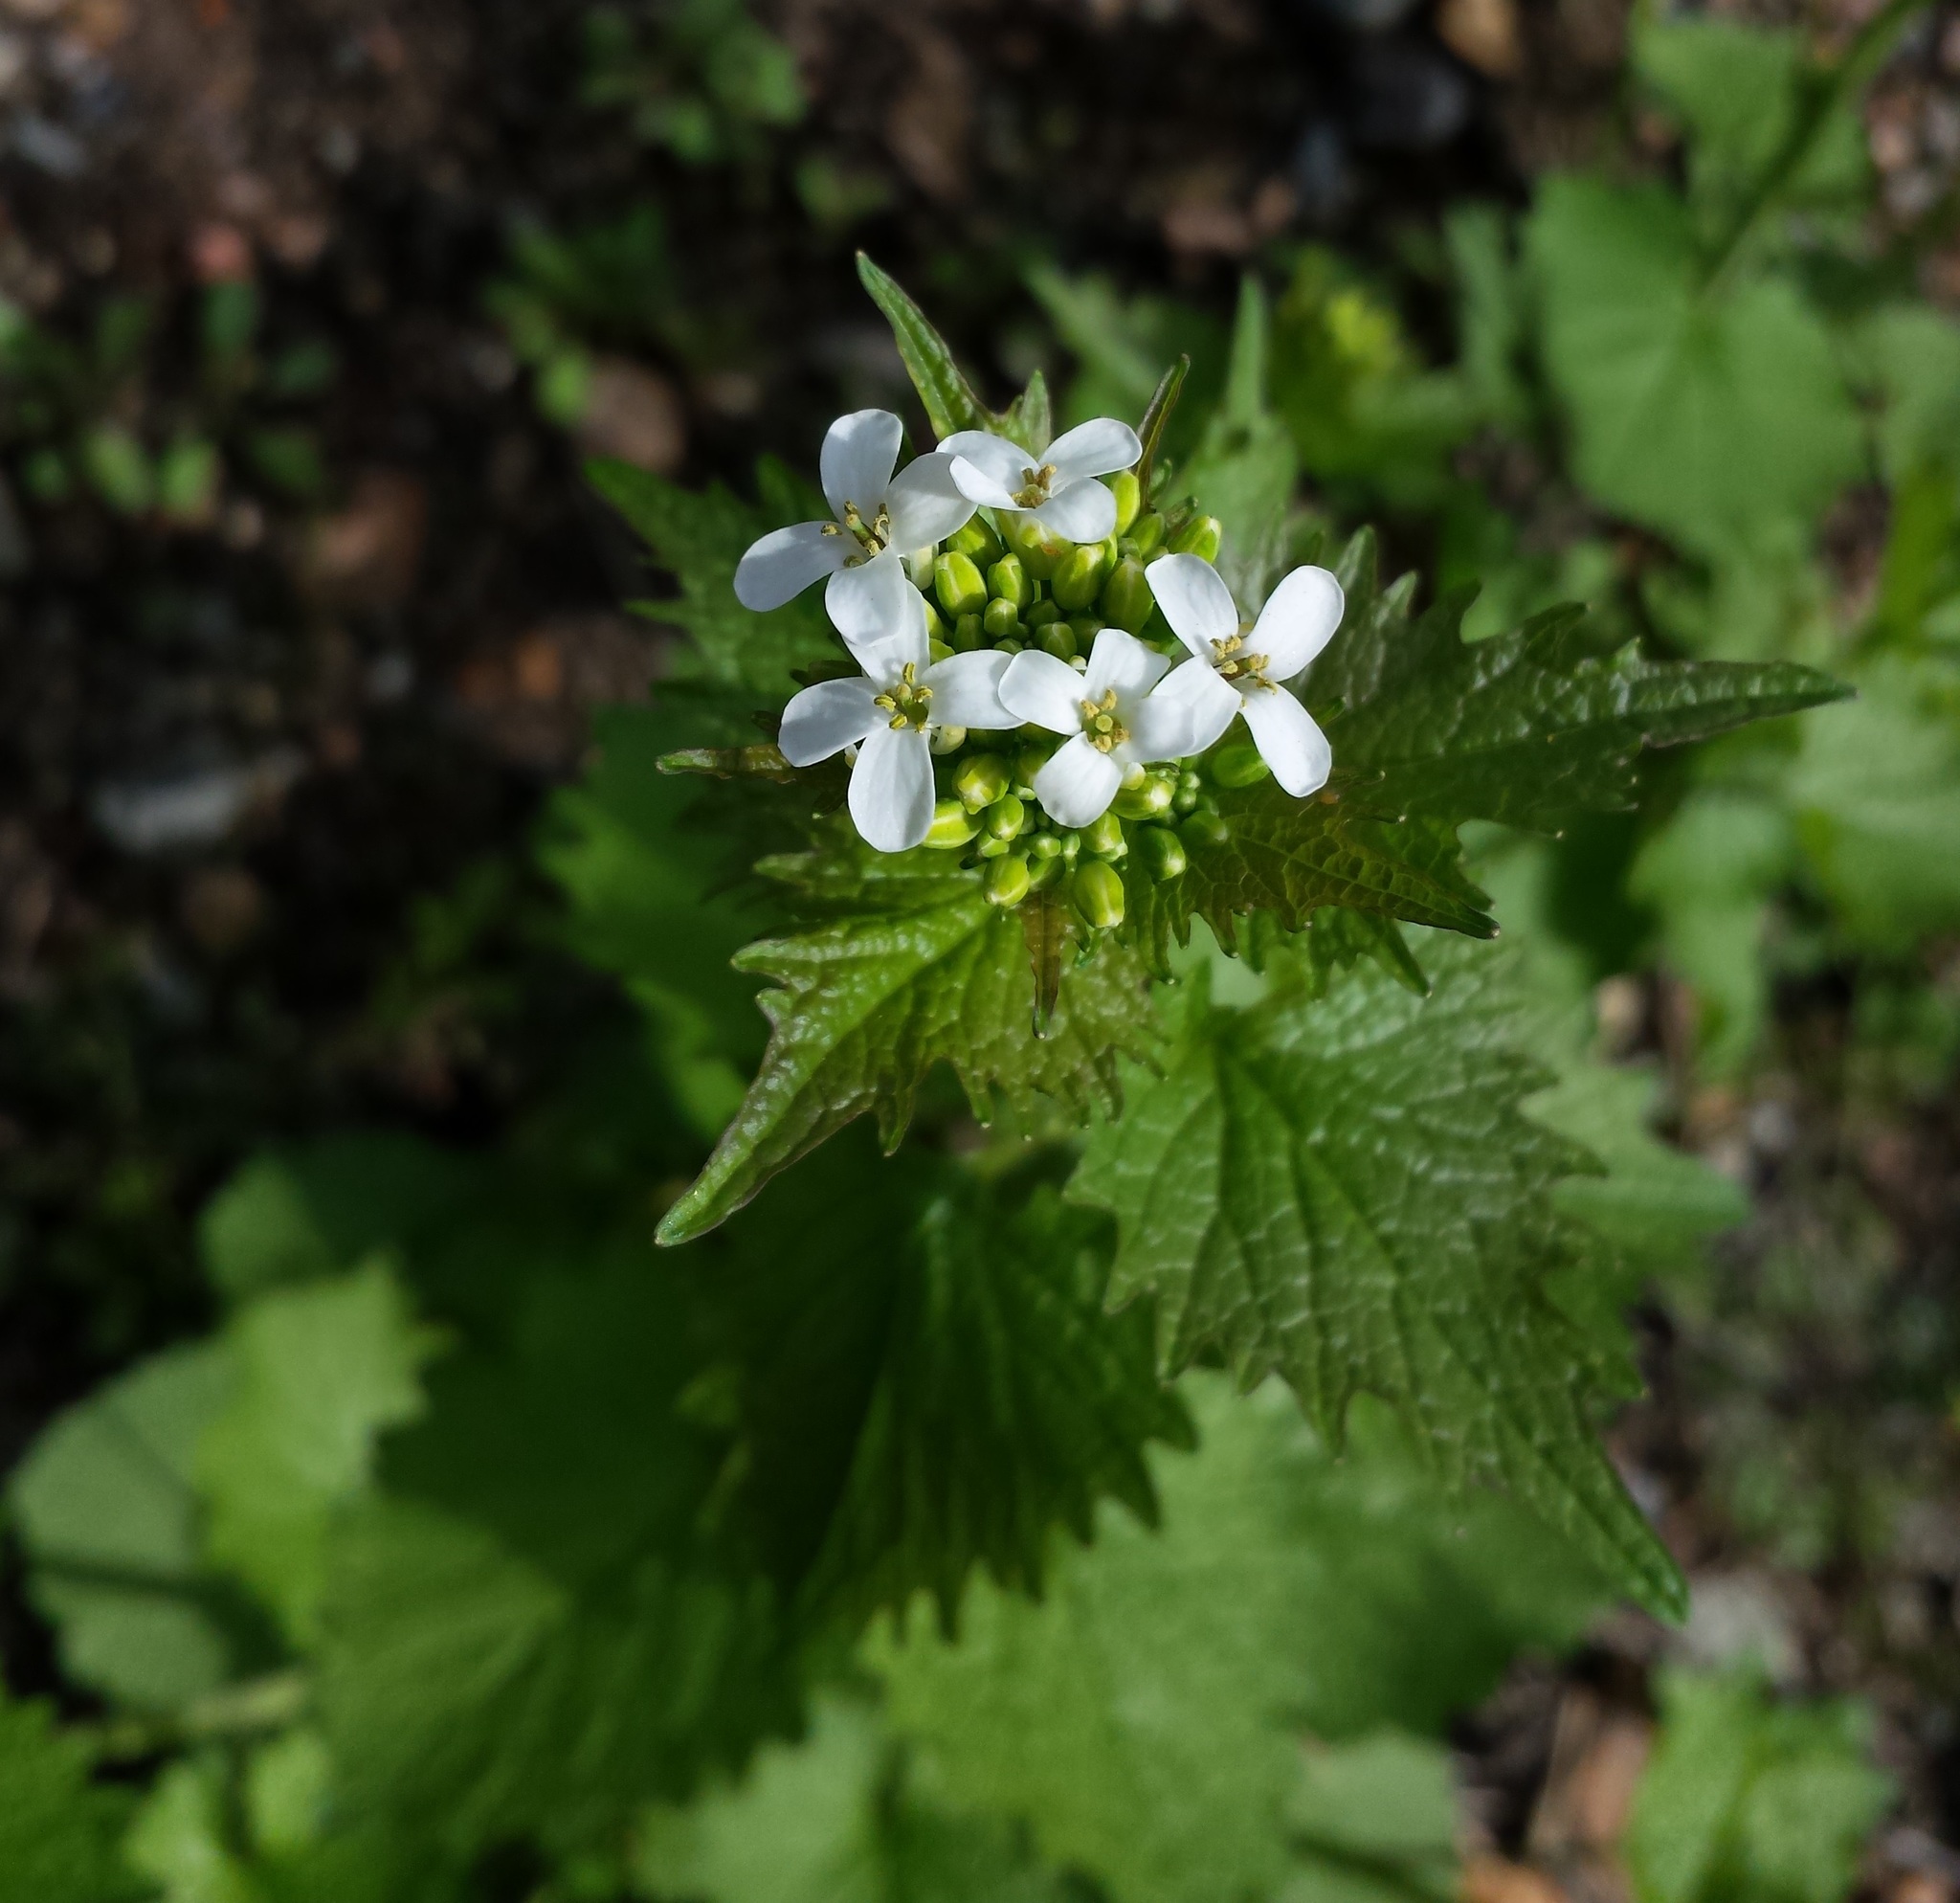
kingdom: Plantae
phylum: Tracheophyta
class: Magnoliopsida
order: Brassicales
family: Brassicaceae
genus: Alliaria
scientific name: Alliaria petiolata
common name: Garlic mustard
